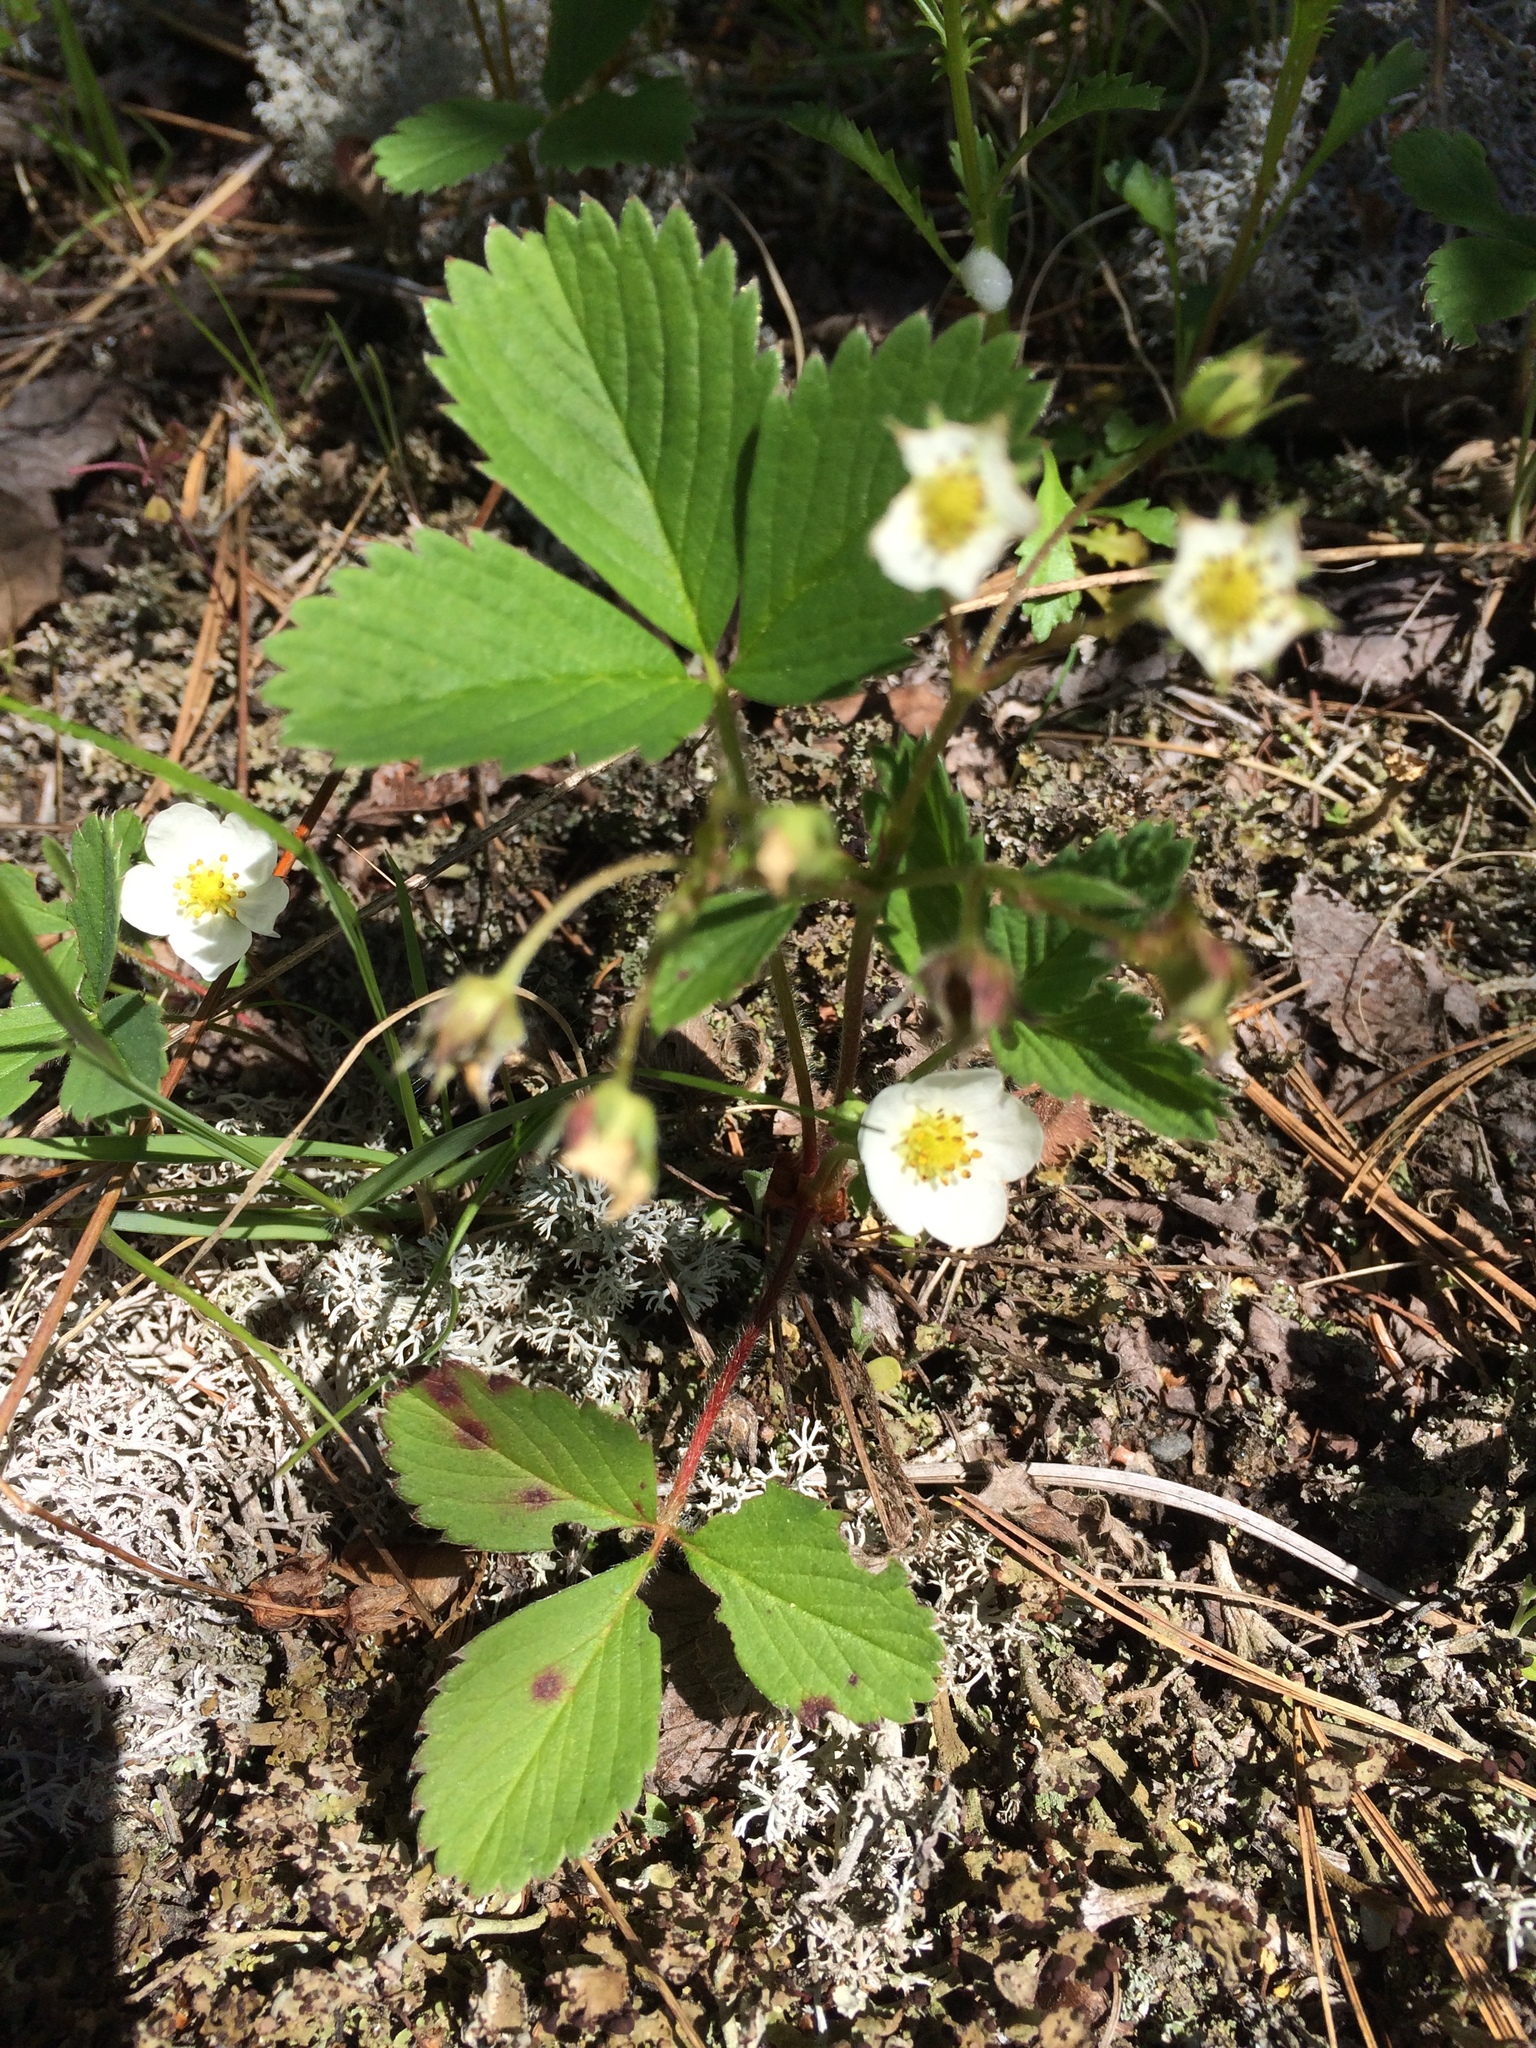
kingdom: Plantae
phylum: Tracheophyta
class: Magnoliopsida
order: Rosales
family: Rosaceae
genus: Fragaria
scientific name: Fragaria virginiana
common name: Thickleaved wild strawberry
